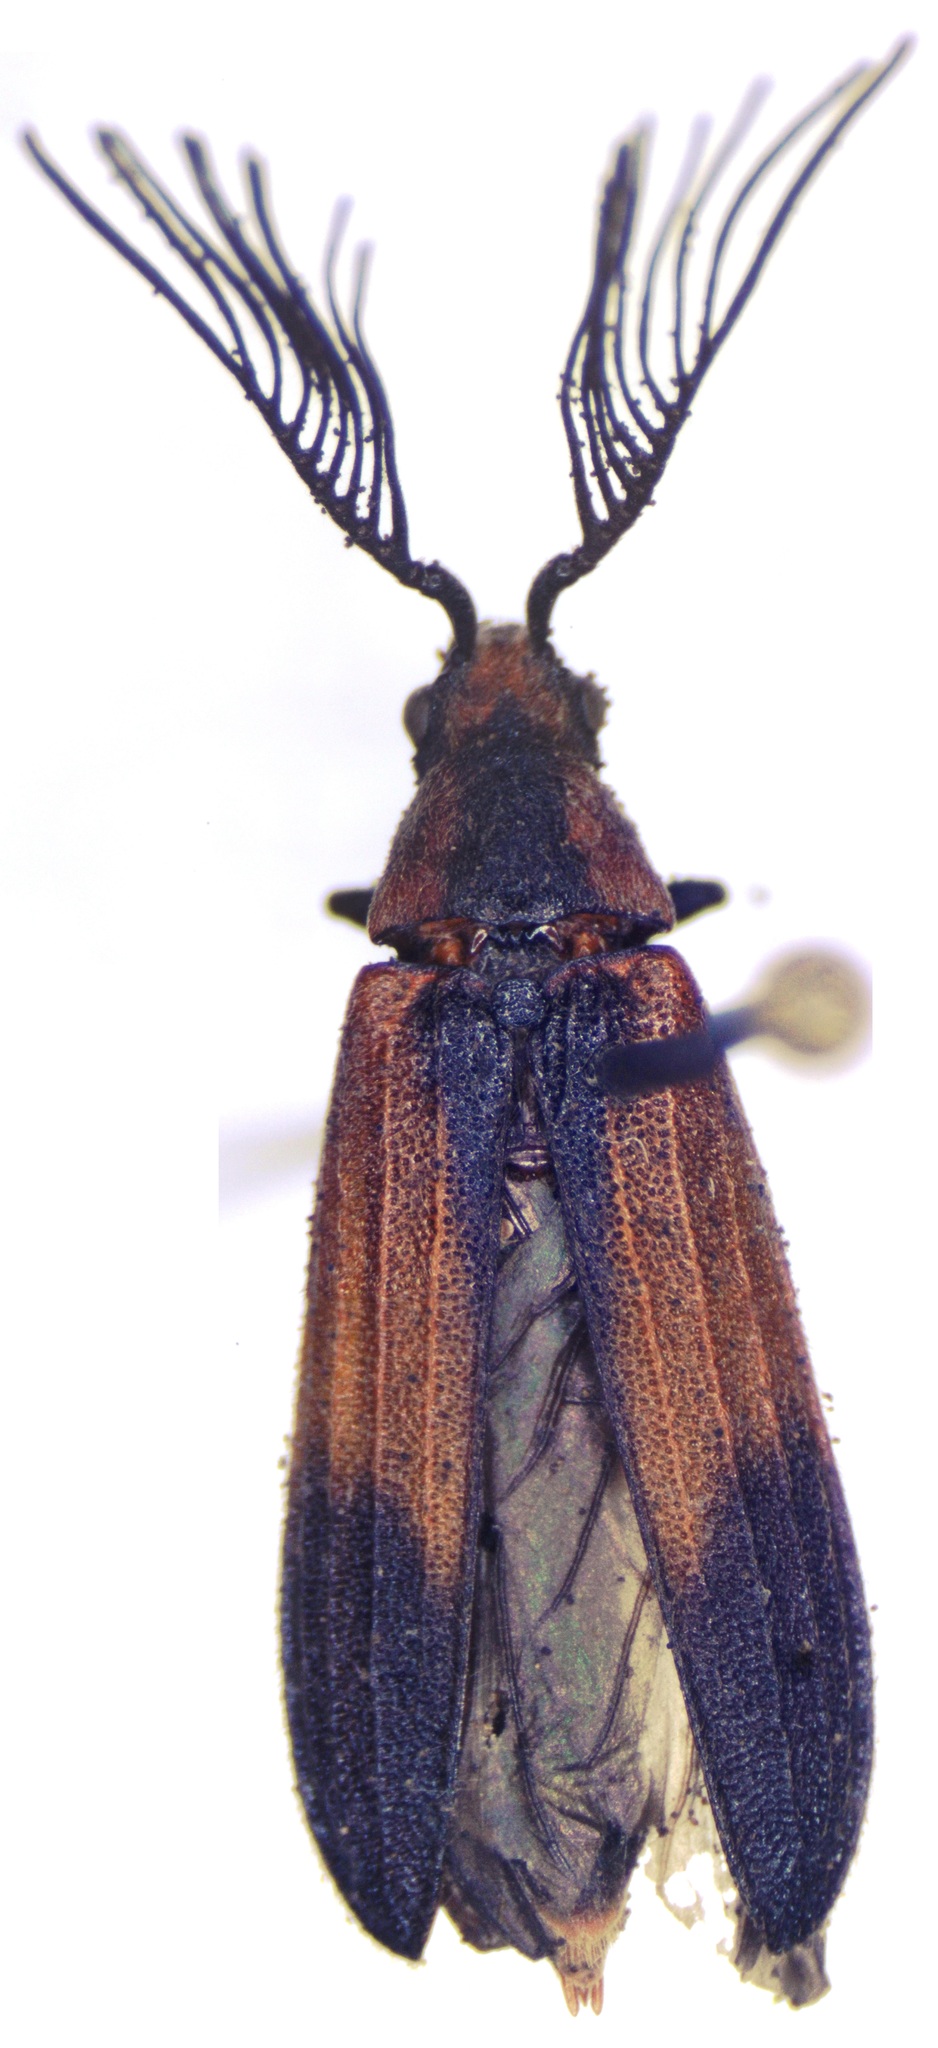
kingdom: Animalia
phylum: Arthropoda
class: Insecta
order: Coleoptera
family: Callirhipidae
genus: Celadonia
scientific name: Celadonia
